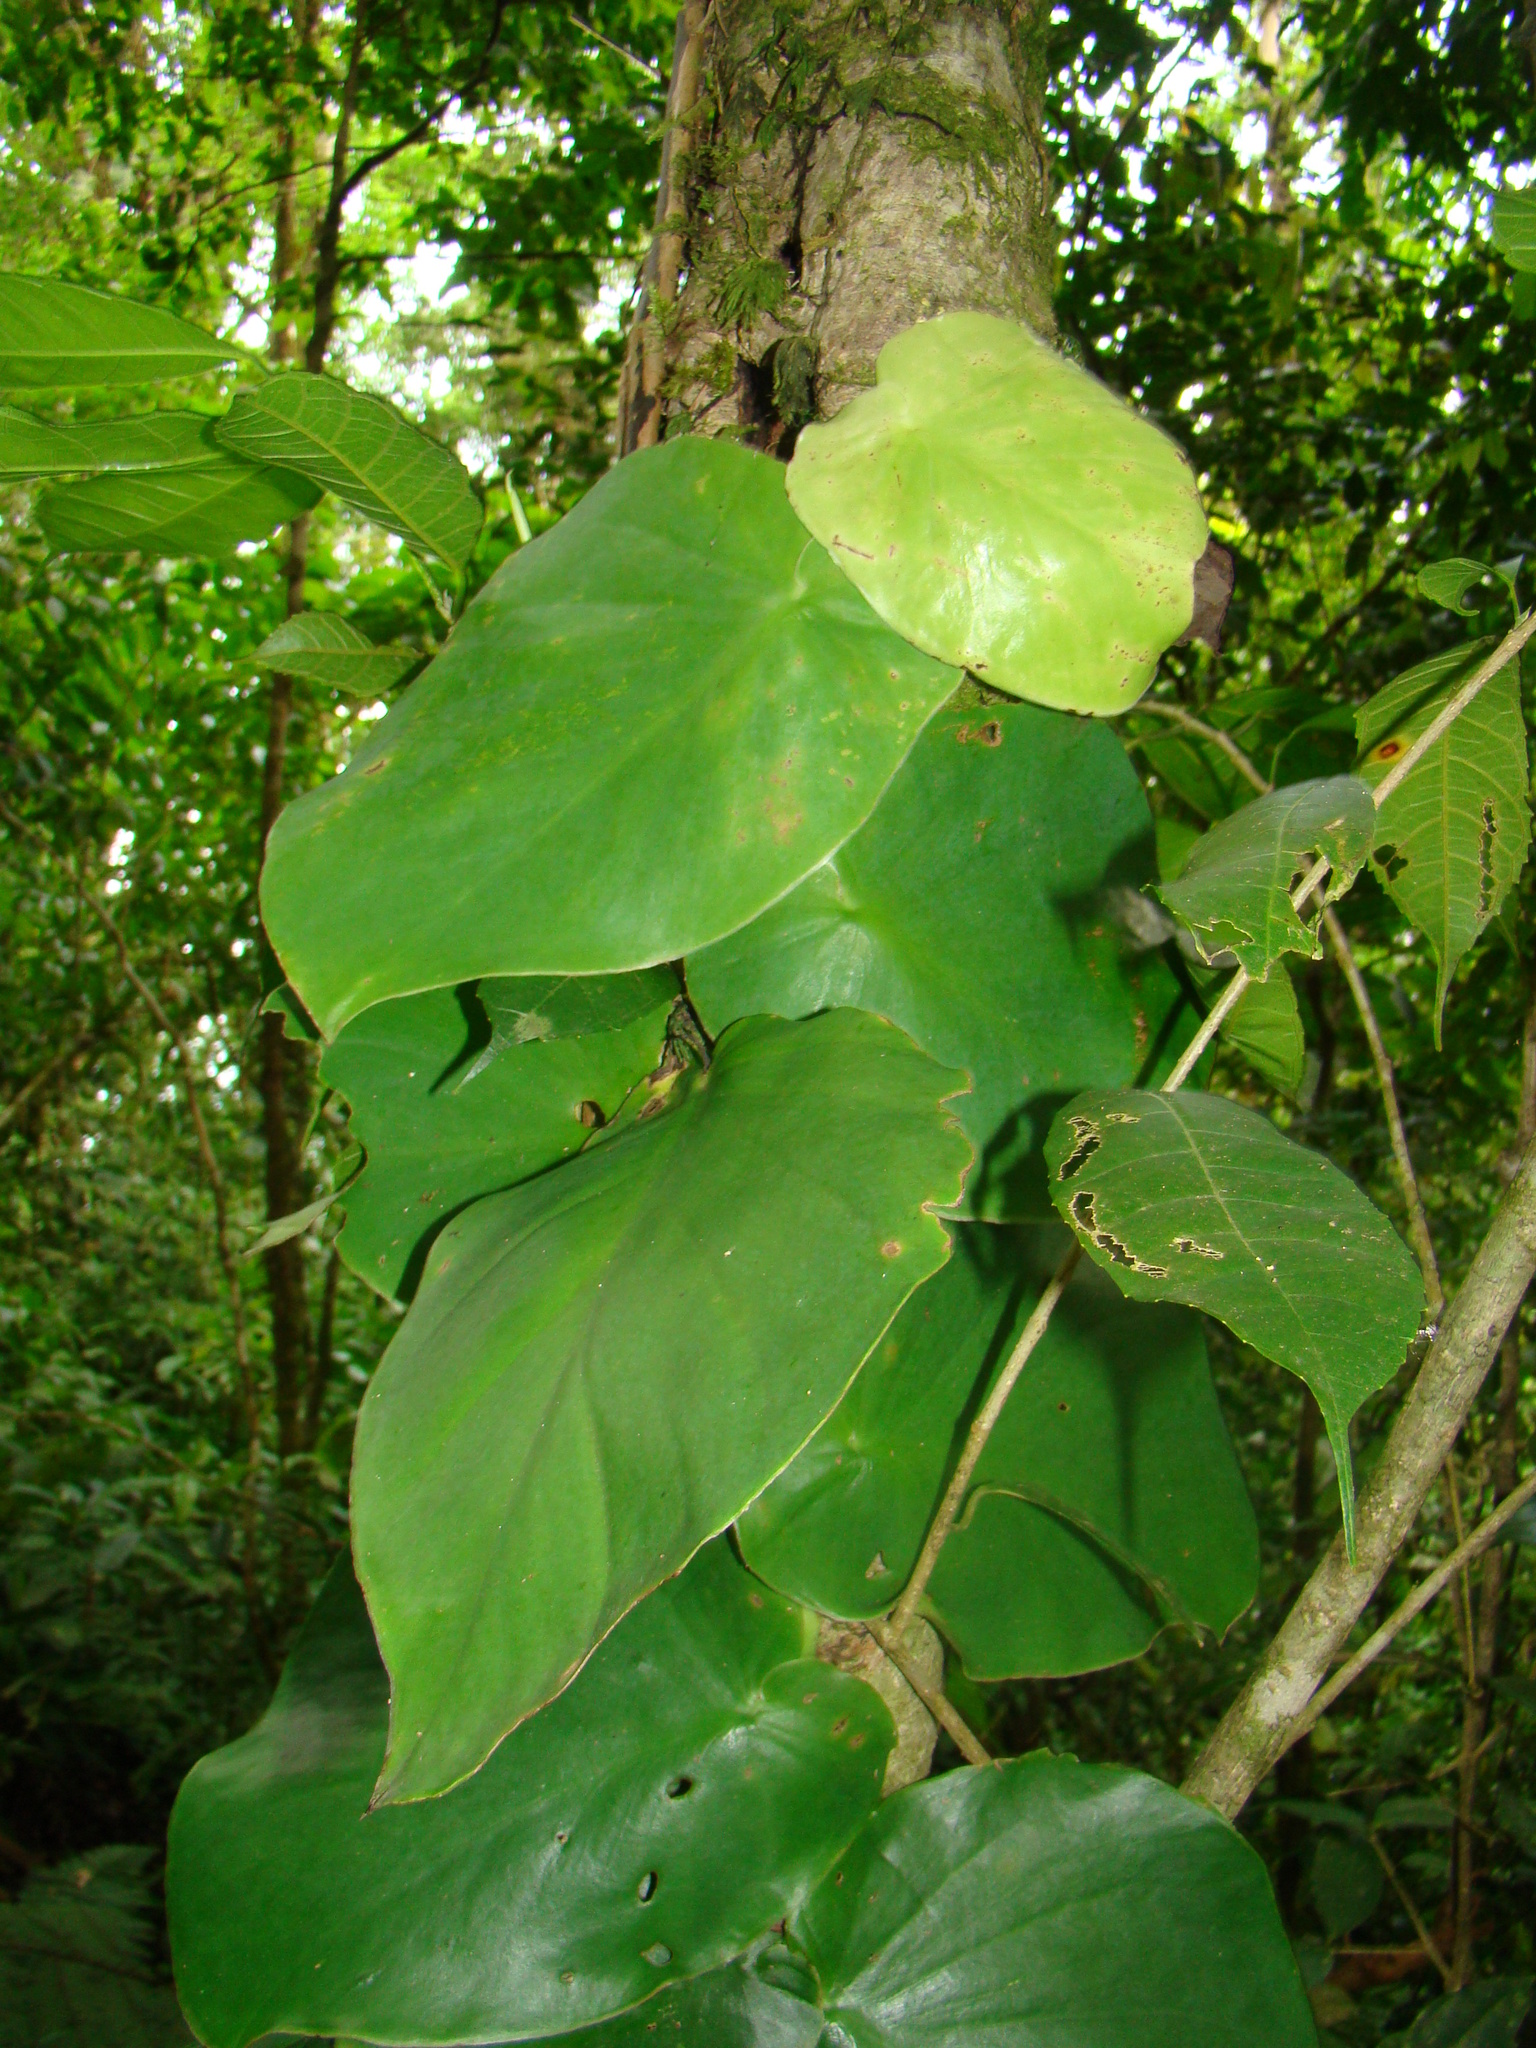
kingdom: Plantae
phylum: Tracheophyta
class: Liliopsida
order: Alismatales
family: Araceae
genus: Monstera
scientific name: Monstera dubia
